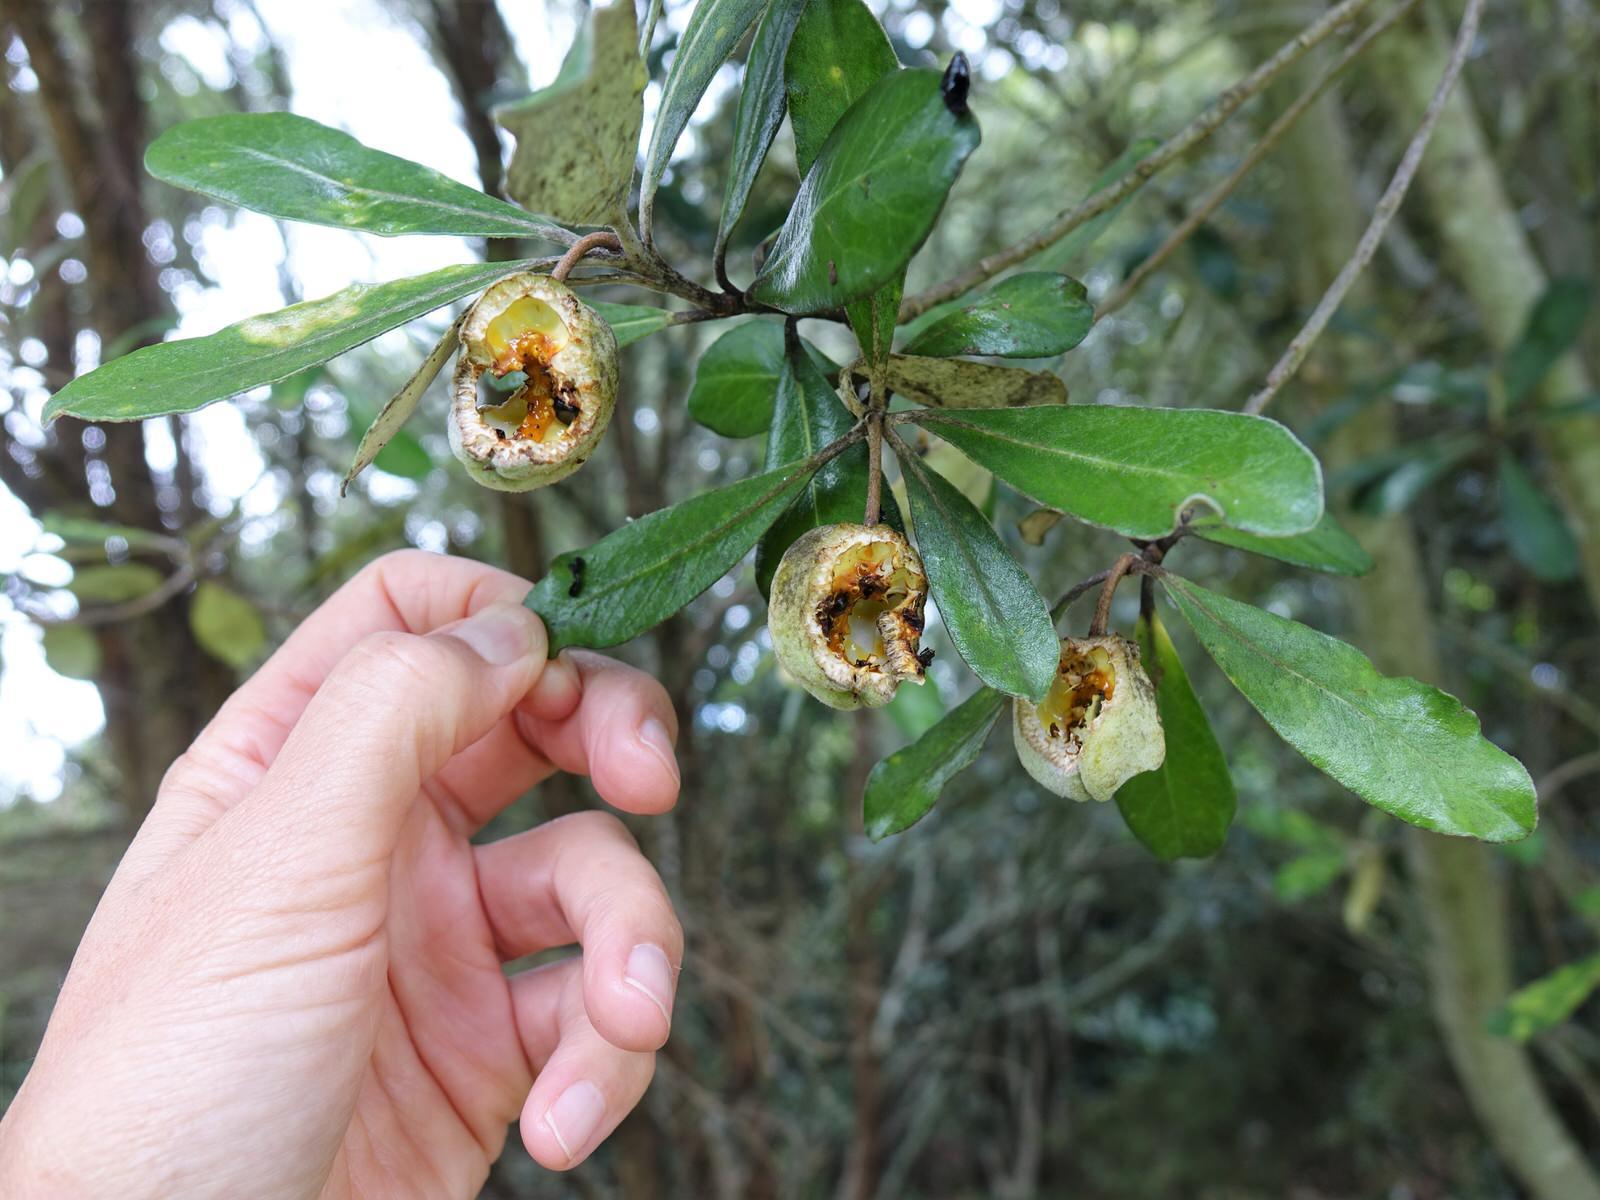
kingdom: Plantae
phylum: Tracheophyta
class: Magnoliopsida
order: Apiales
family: Pittosporaceae
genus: Pittosporum
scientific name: Pittosporum crassifolium
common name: Karo
